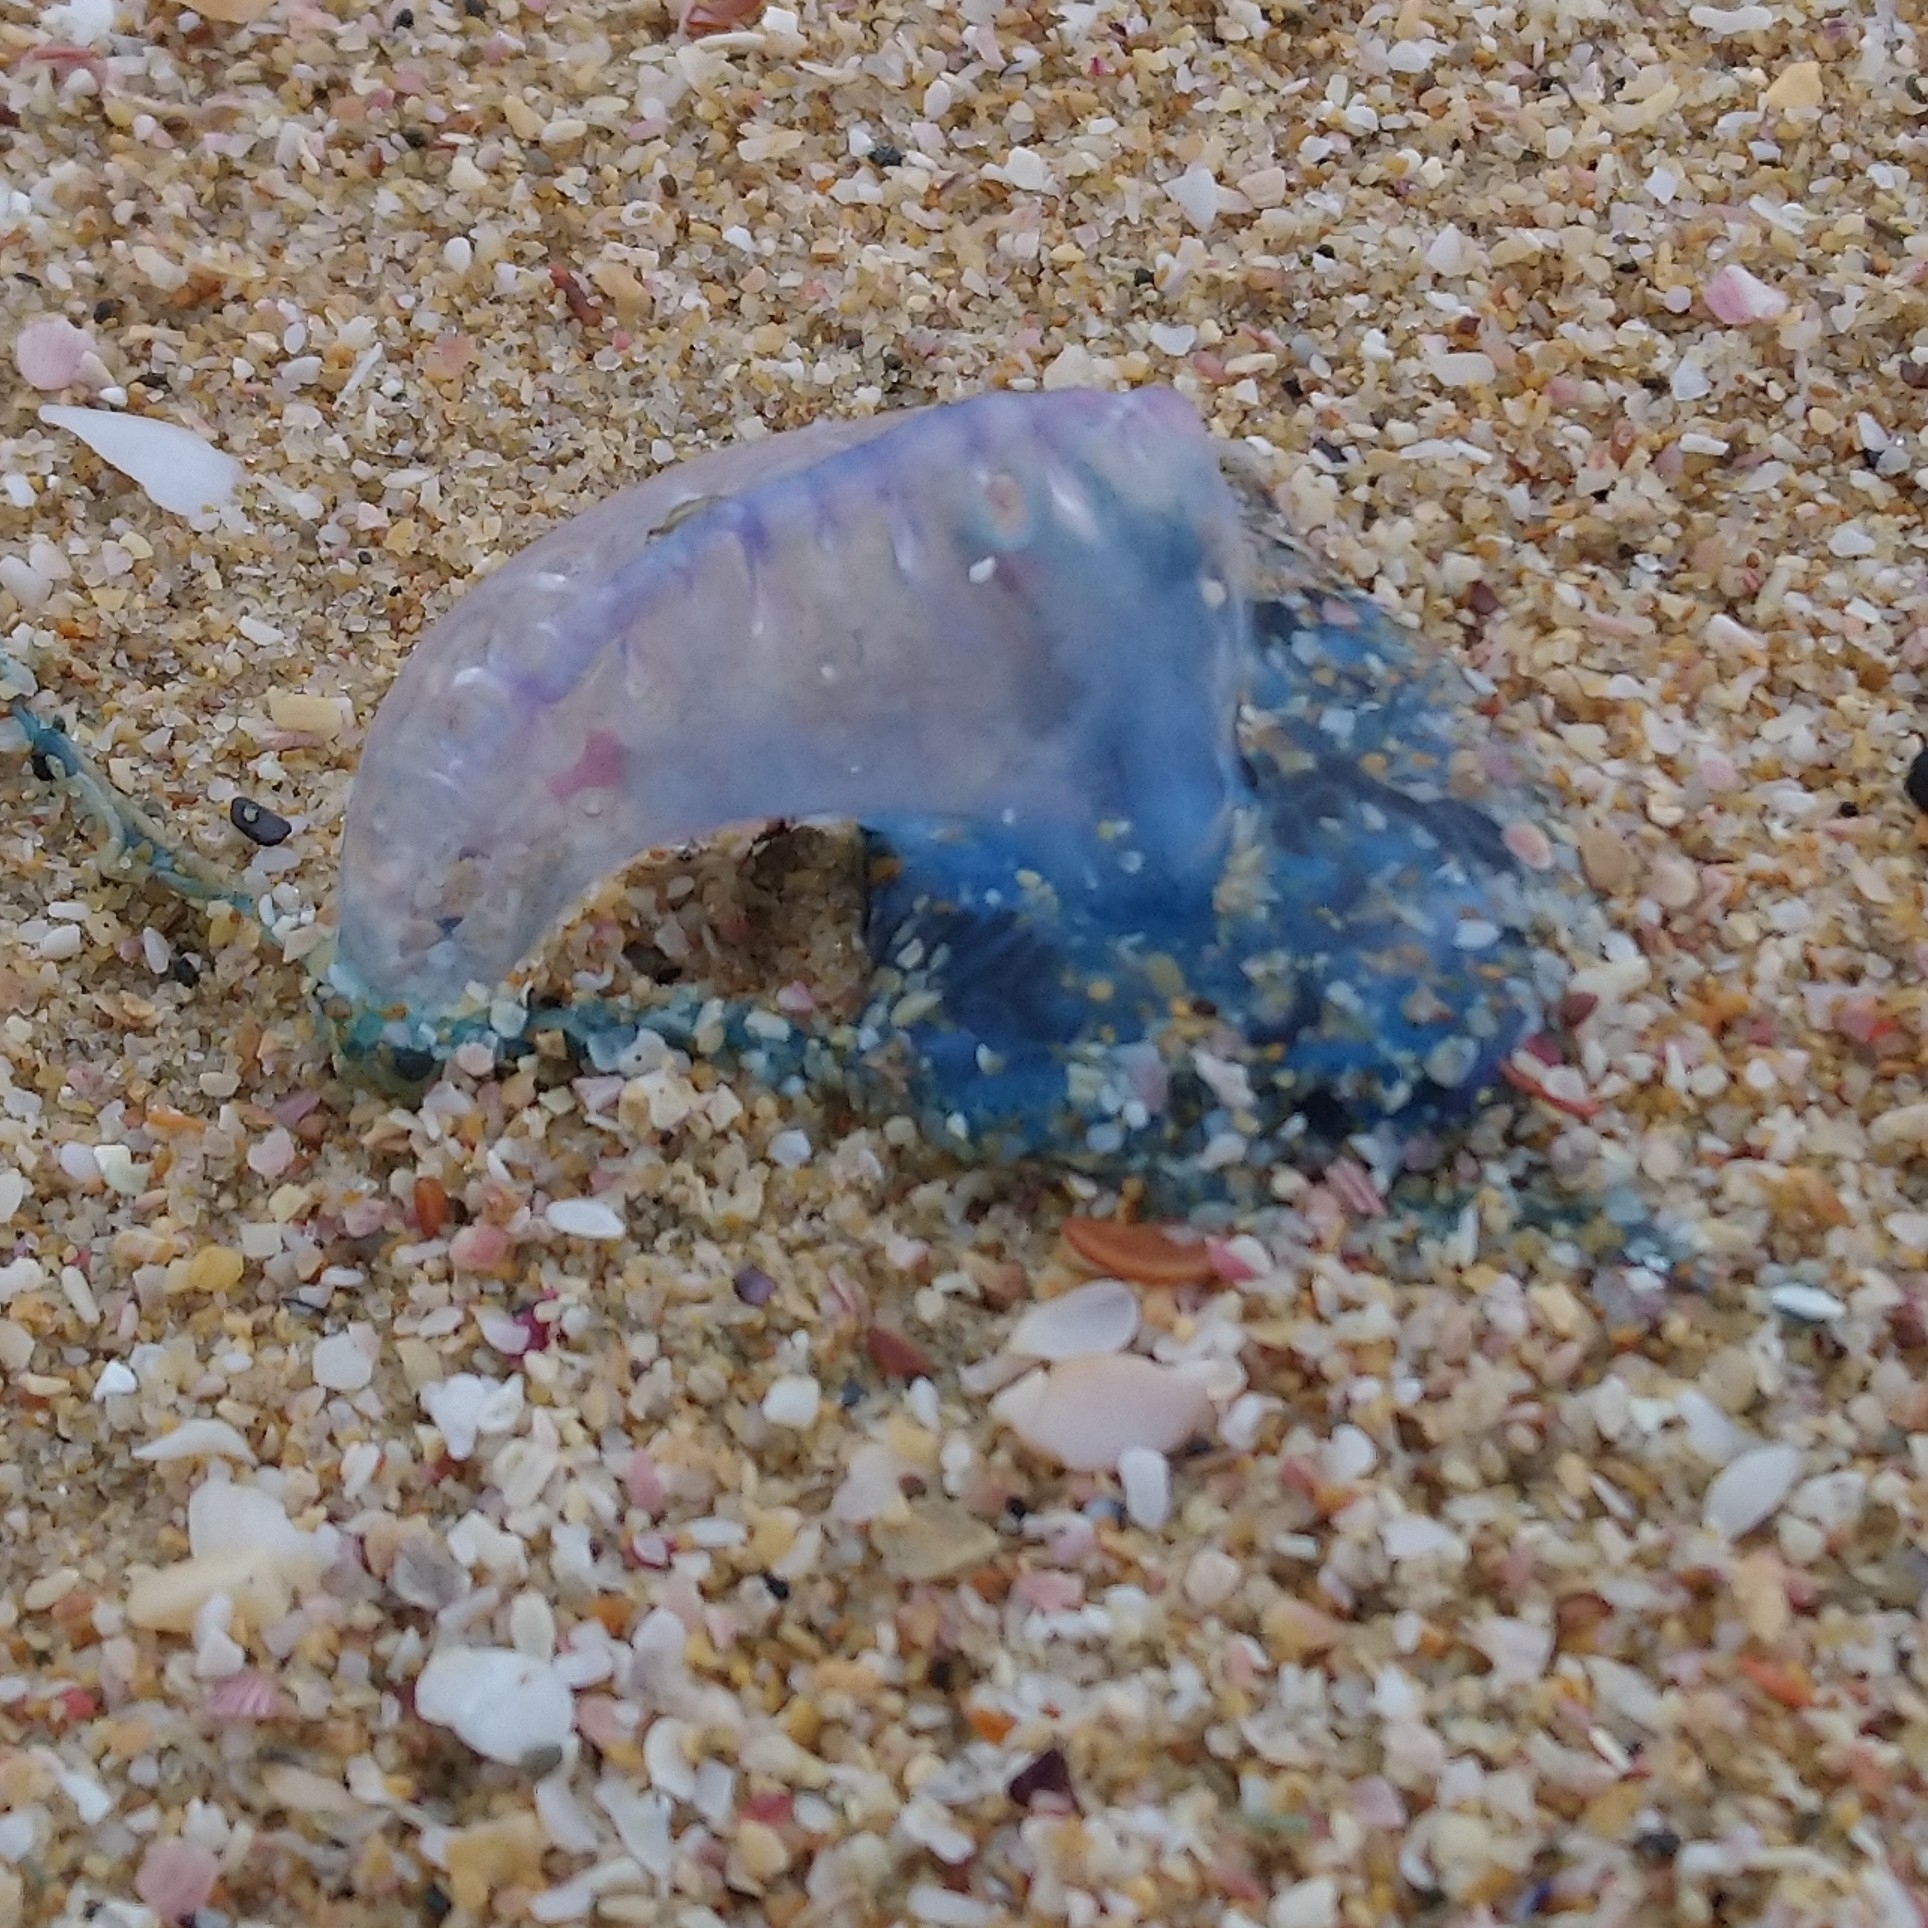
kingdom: Animalia
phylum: Cnidaria
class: Hydrozoa
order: Siphonophorae
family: Physaliidae
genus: Physalia
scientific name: Physalia physalis
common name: Portuguese man-of-war
